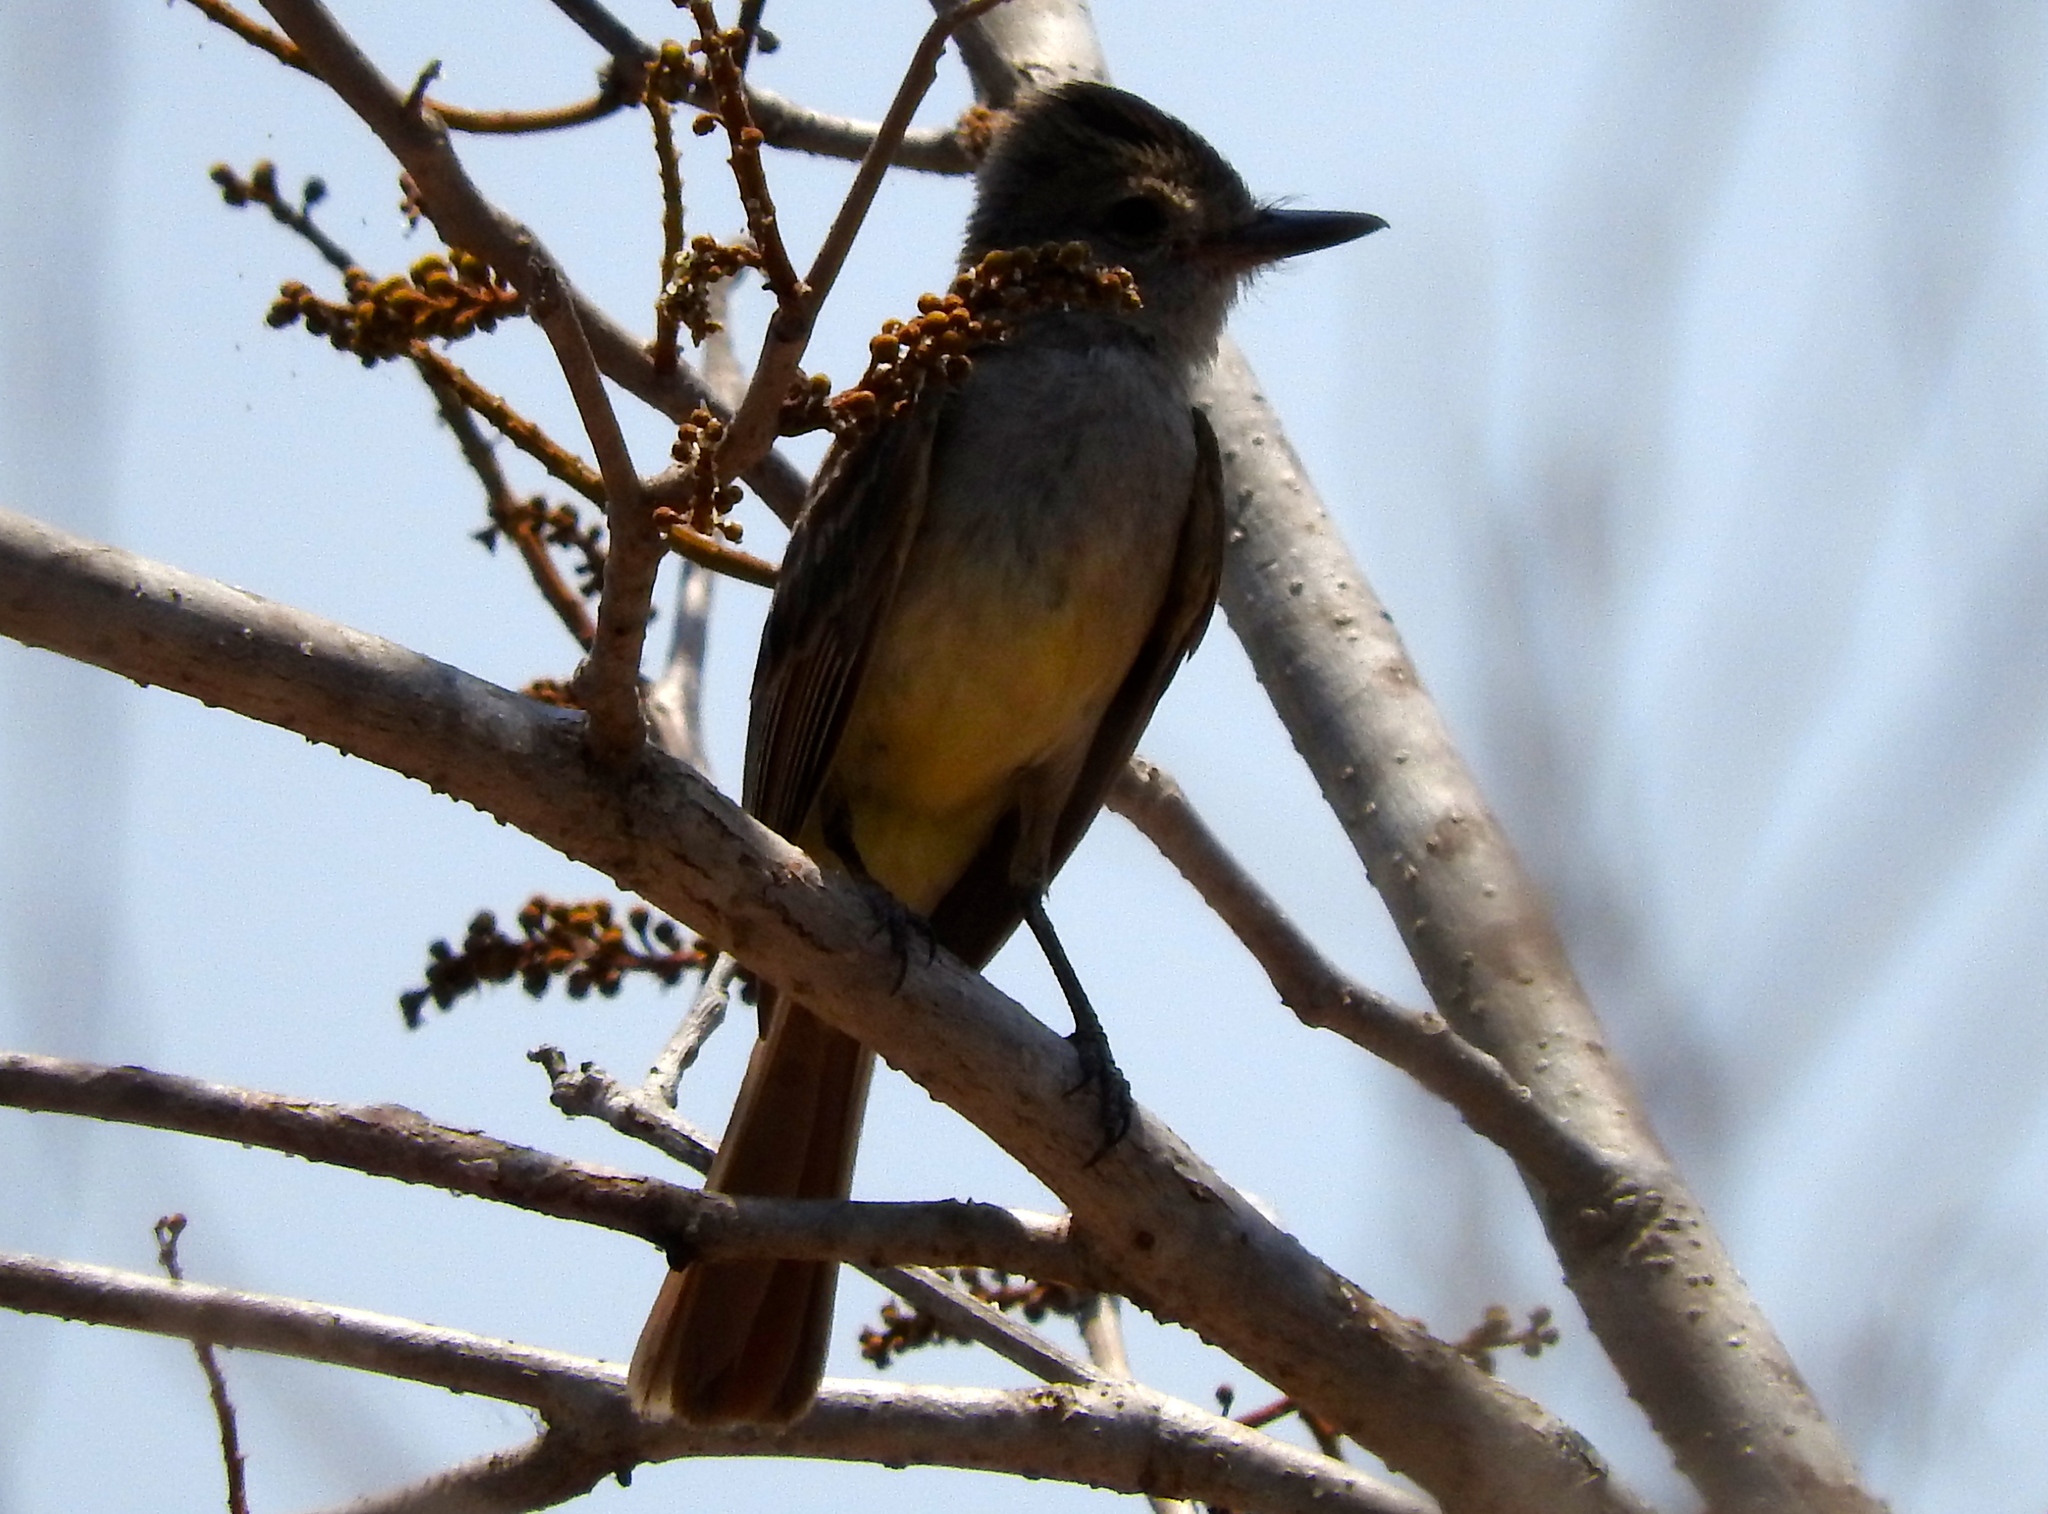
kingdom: Animalia
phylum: Chordata
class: Aves
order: Passeriformes
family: Tyrannidae
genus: Myiarchus
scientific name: Myiarchus
